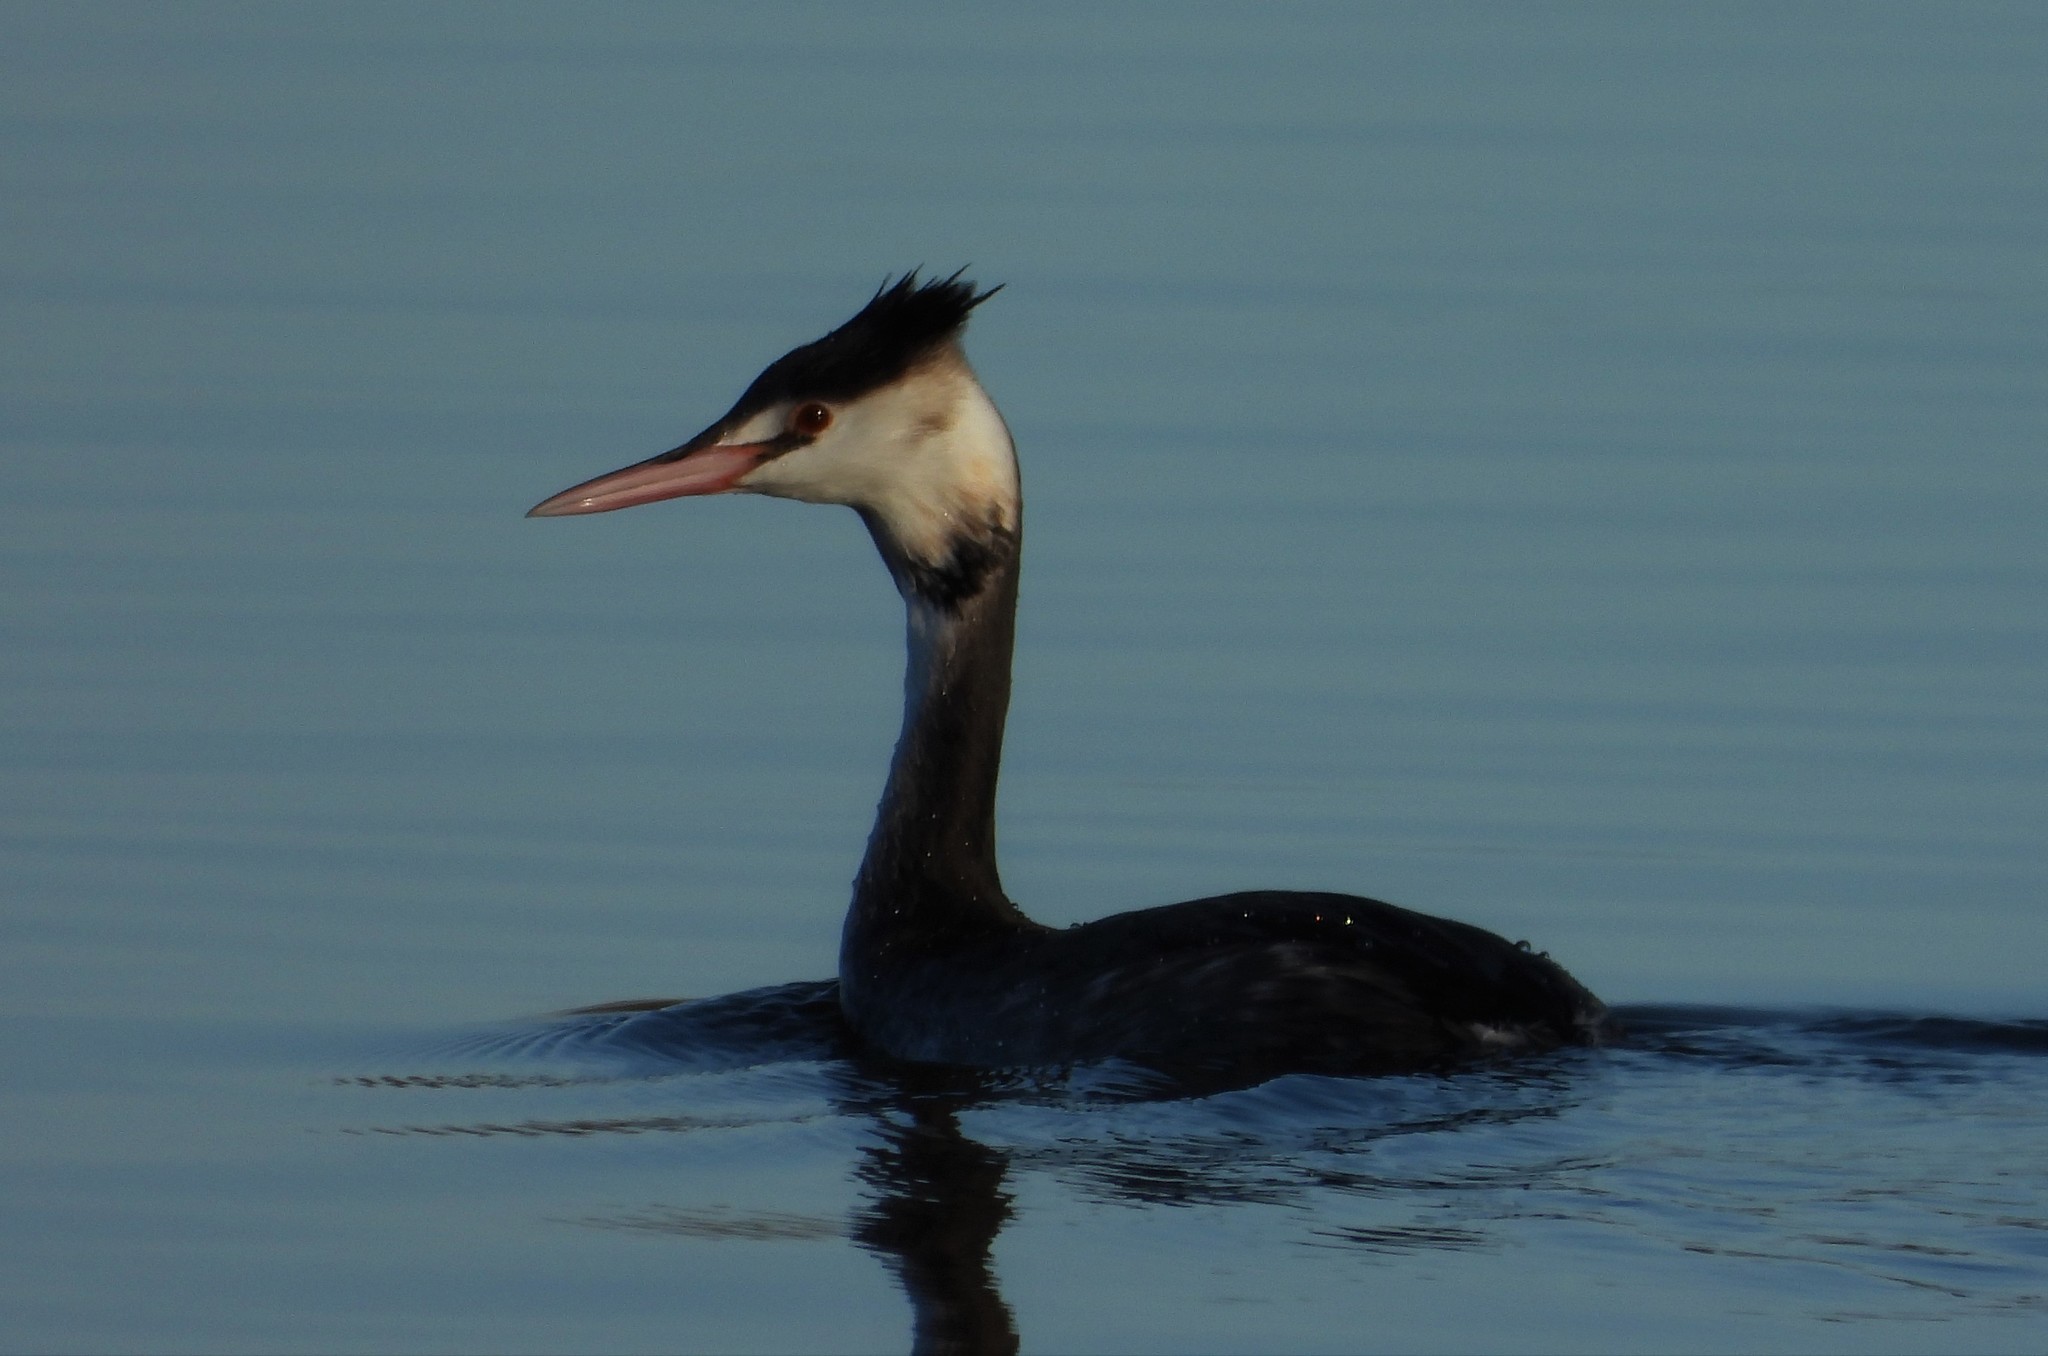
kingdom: Animalia
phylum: Chordata
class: Aves
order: Podicipediformes
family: Podicipedidae
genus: Podiceps
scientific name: Podiceps cristatus
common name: Great crested grebe
